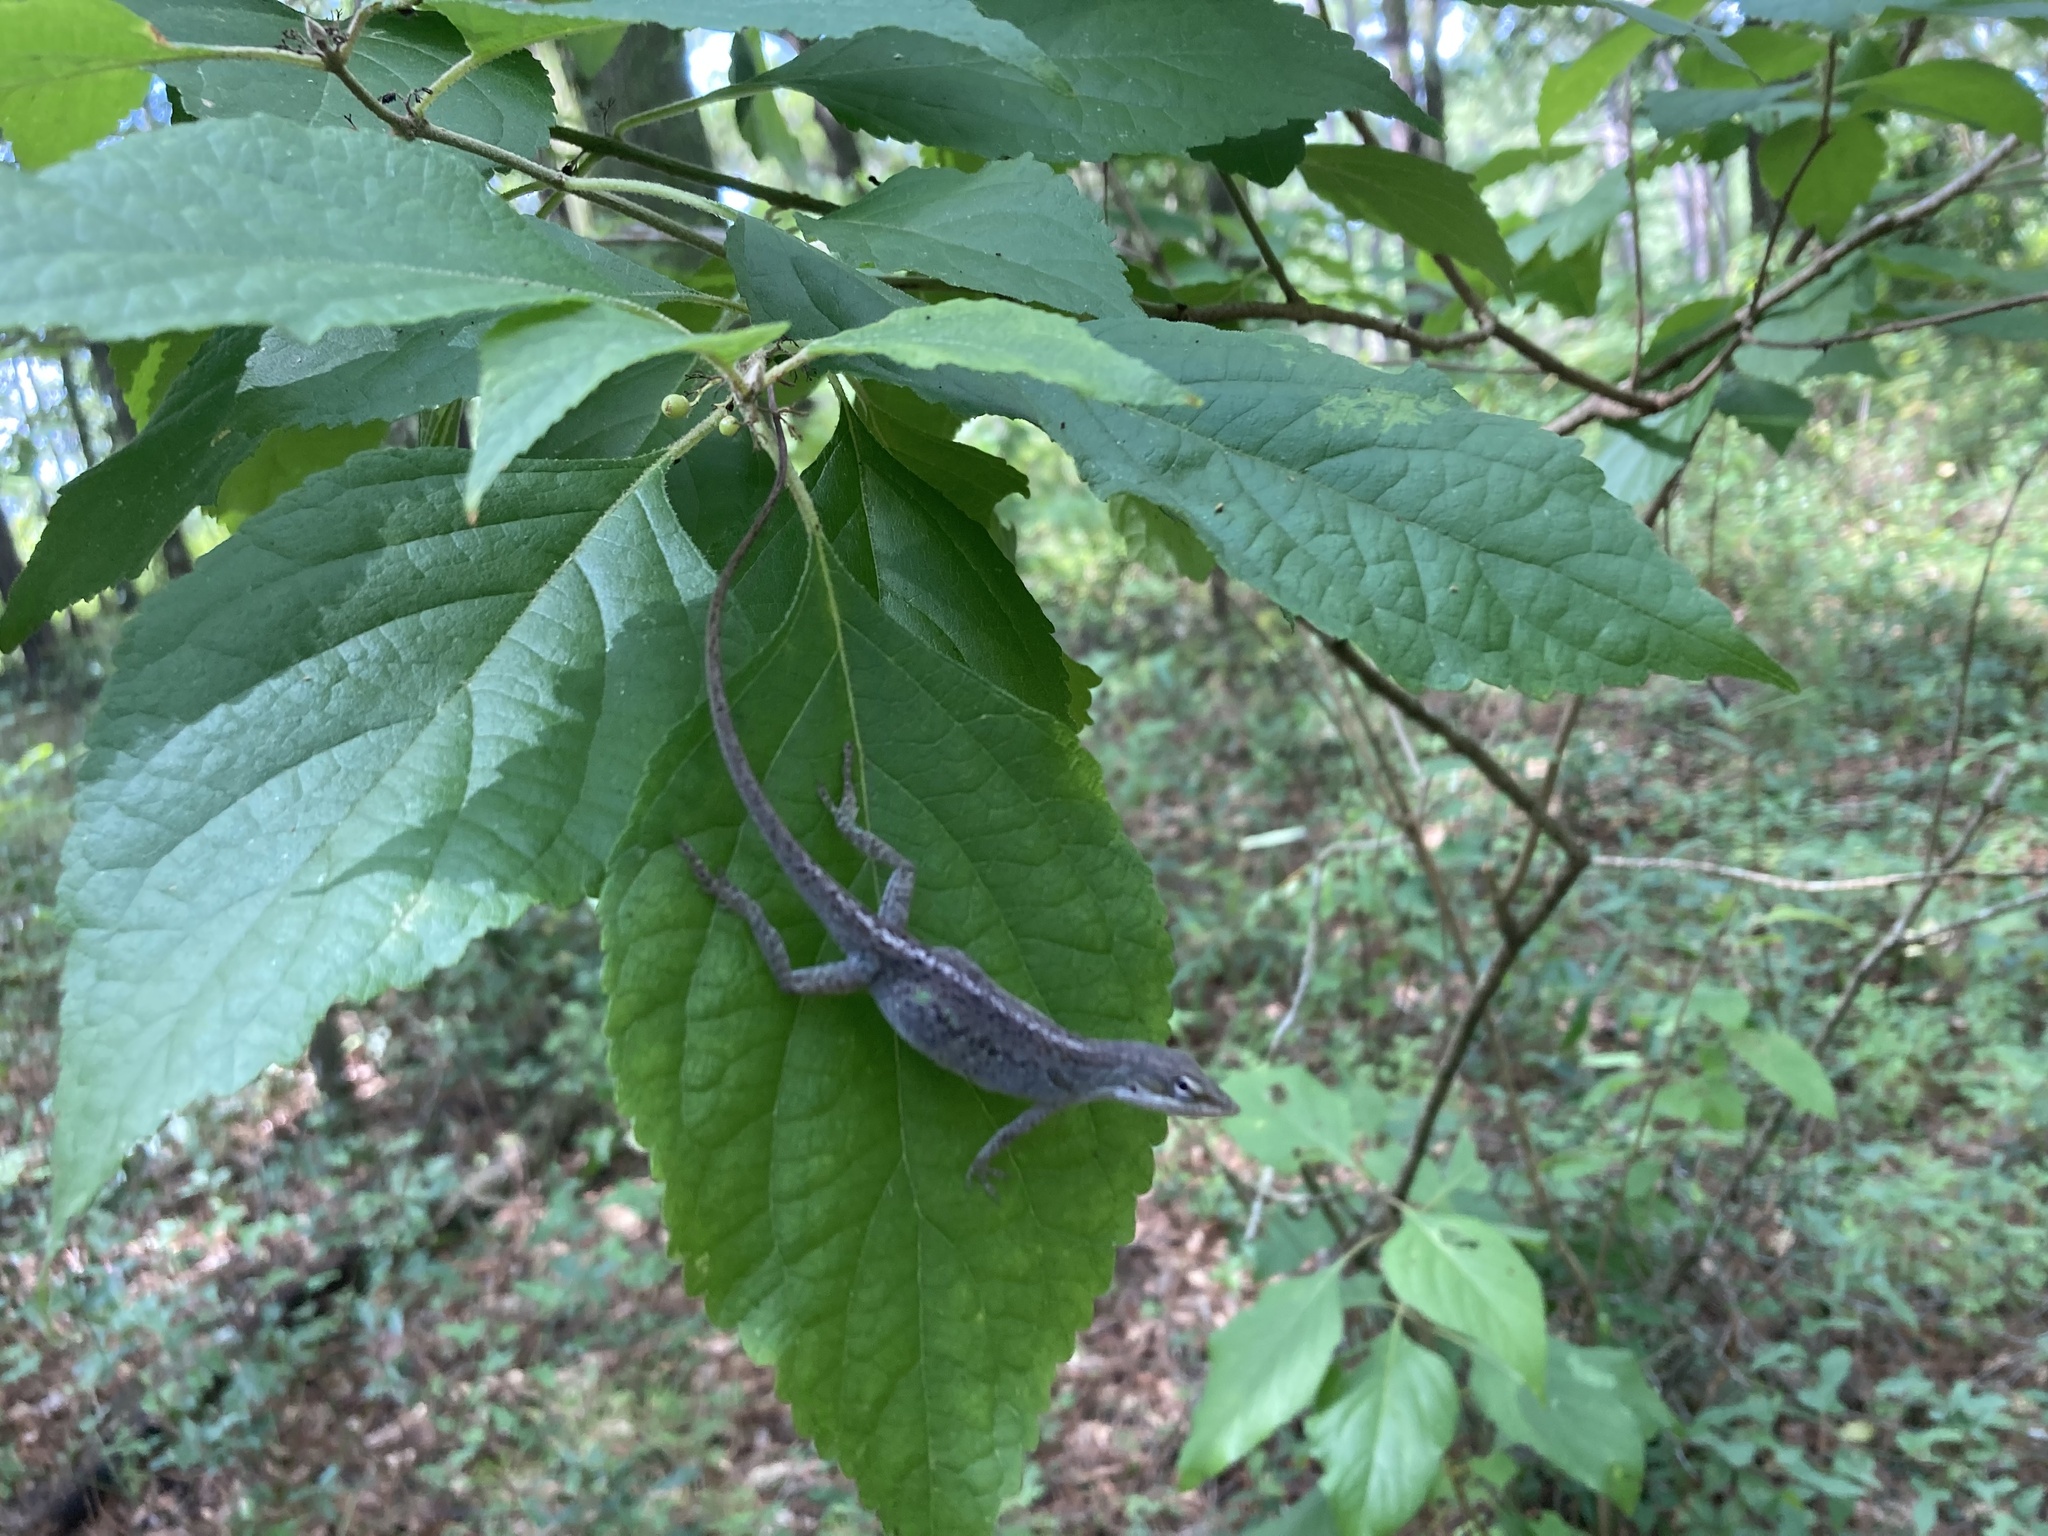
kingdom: Animalia
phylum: Chordata
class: Squamata
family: Dactyloidae
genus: Anolis
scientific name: Anolis carolinensis
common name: Green anole
